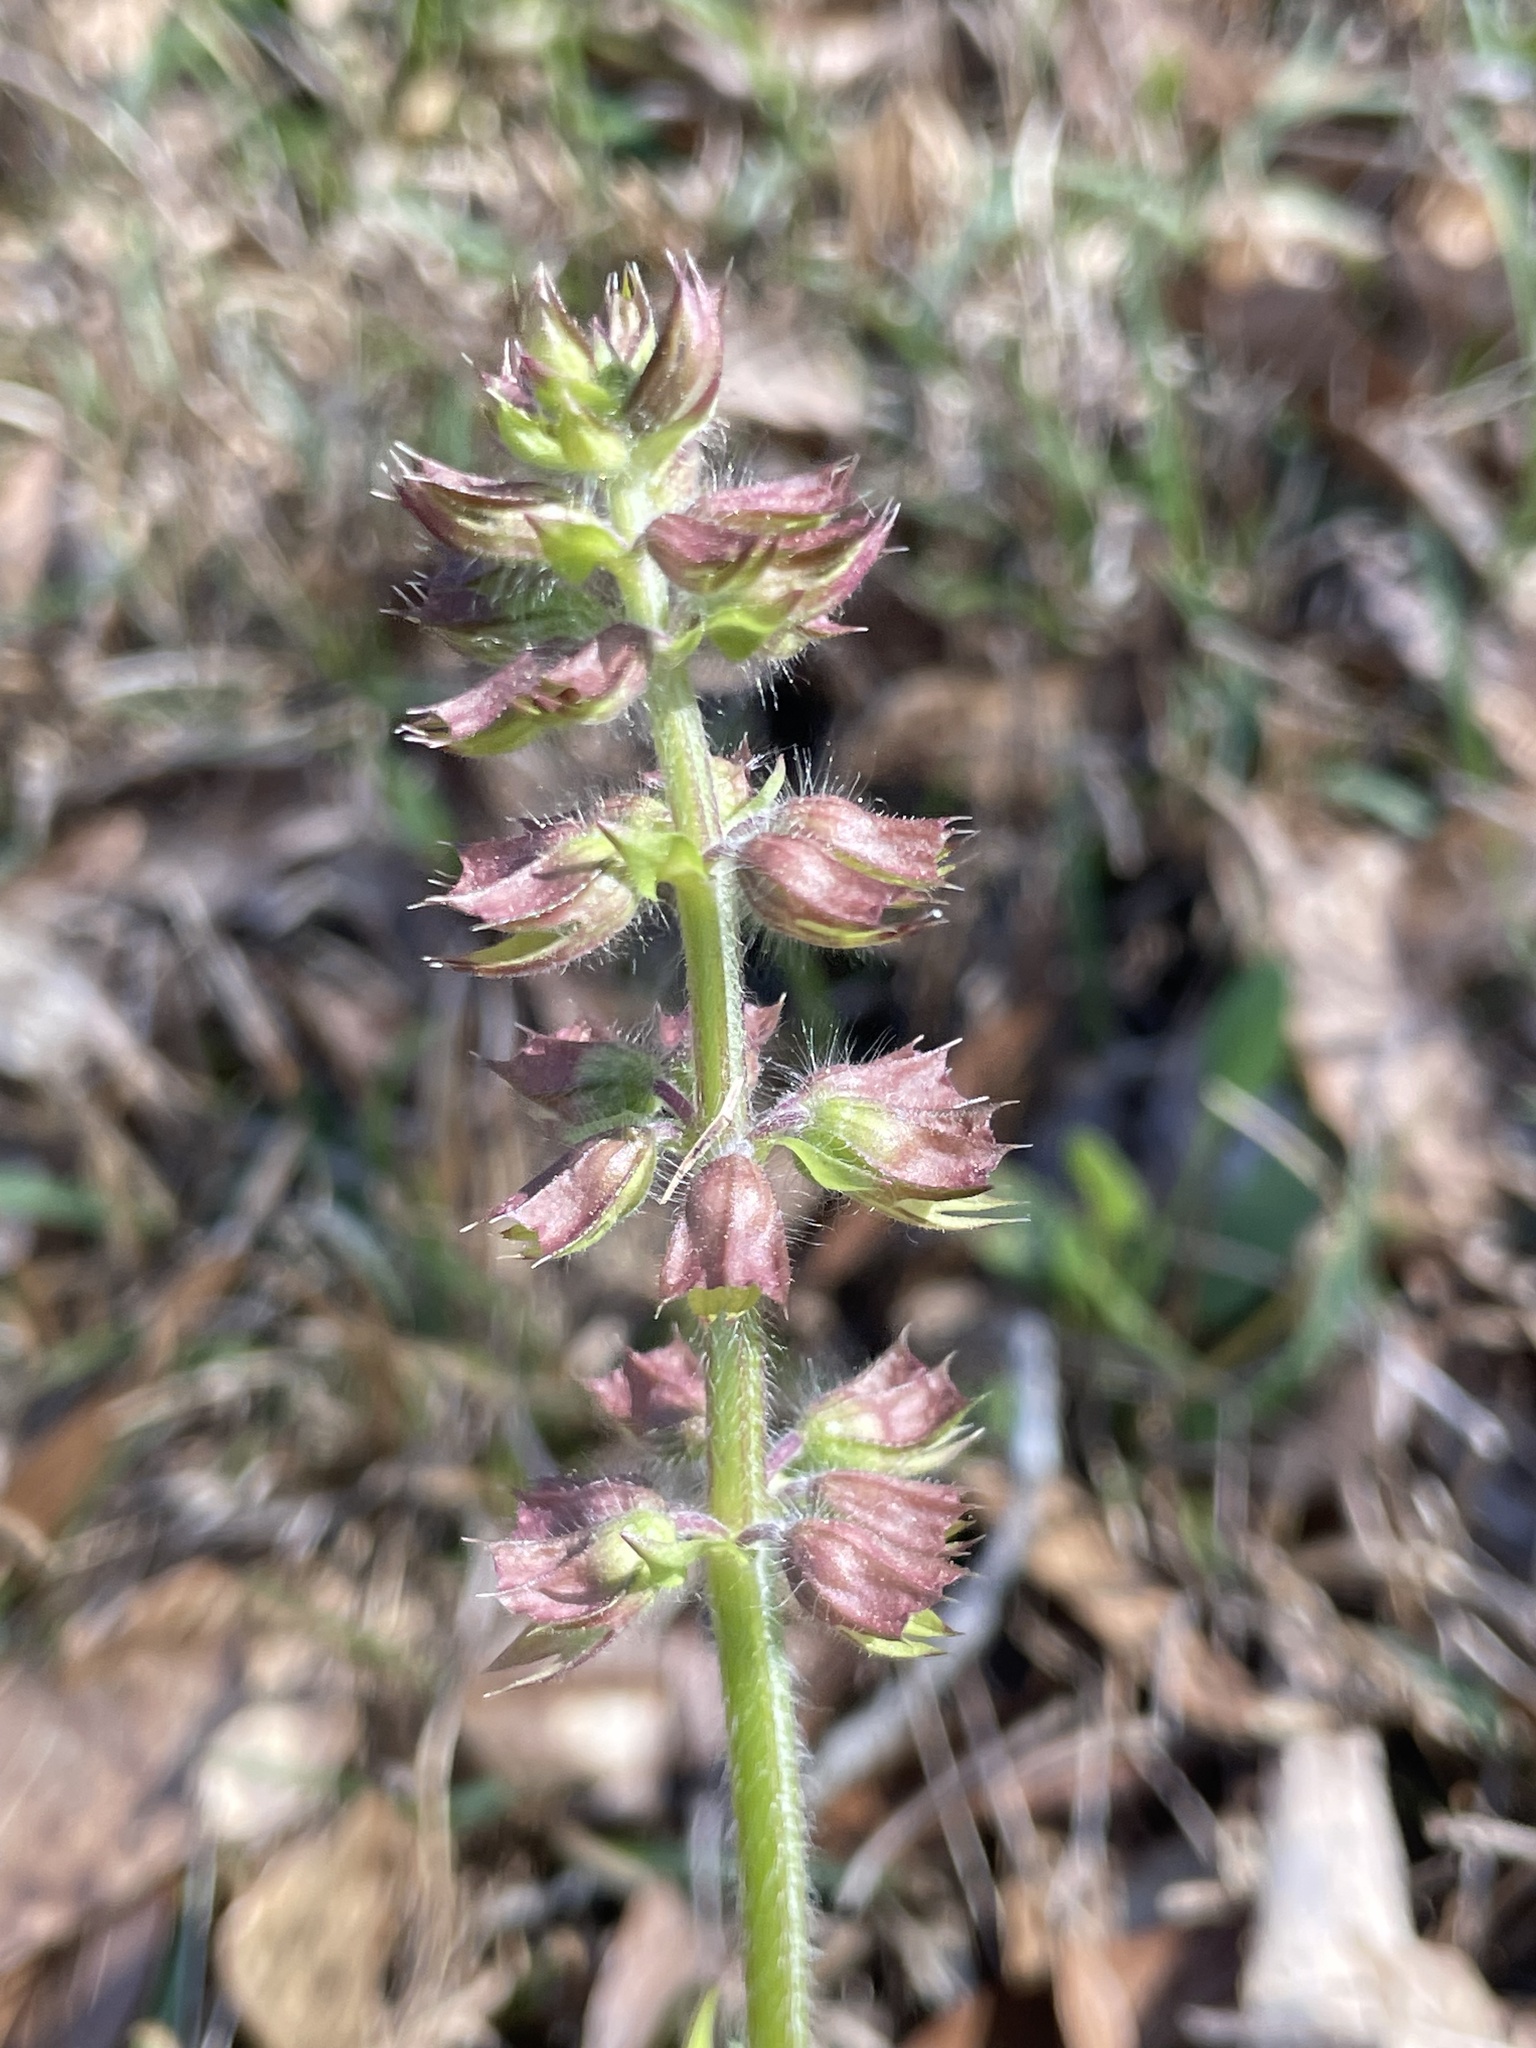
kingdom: Plantae
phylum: Tracheophyta
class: Magnoliopsida
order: Lamiales
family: Lamiaceae
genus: Salvia
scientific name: Salvia lyrata
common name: Cancerweed
